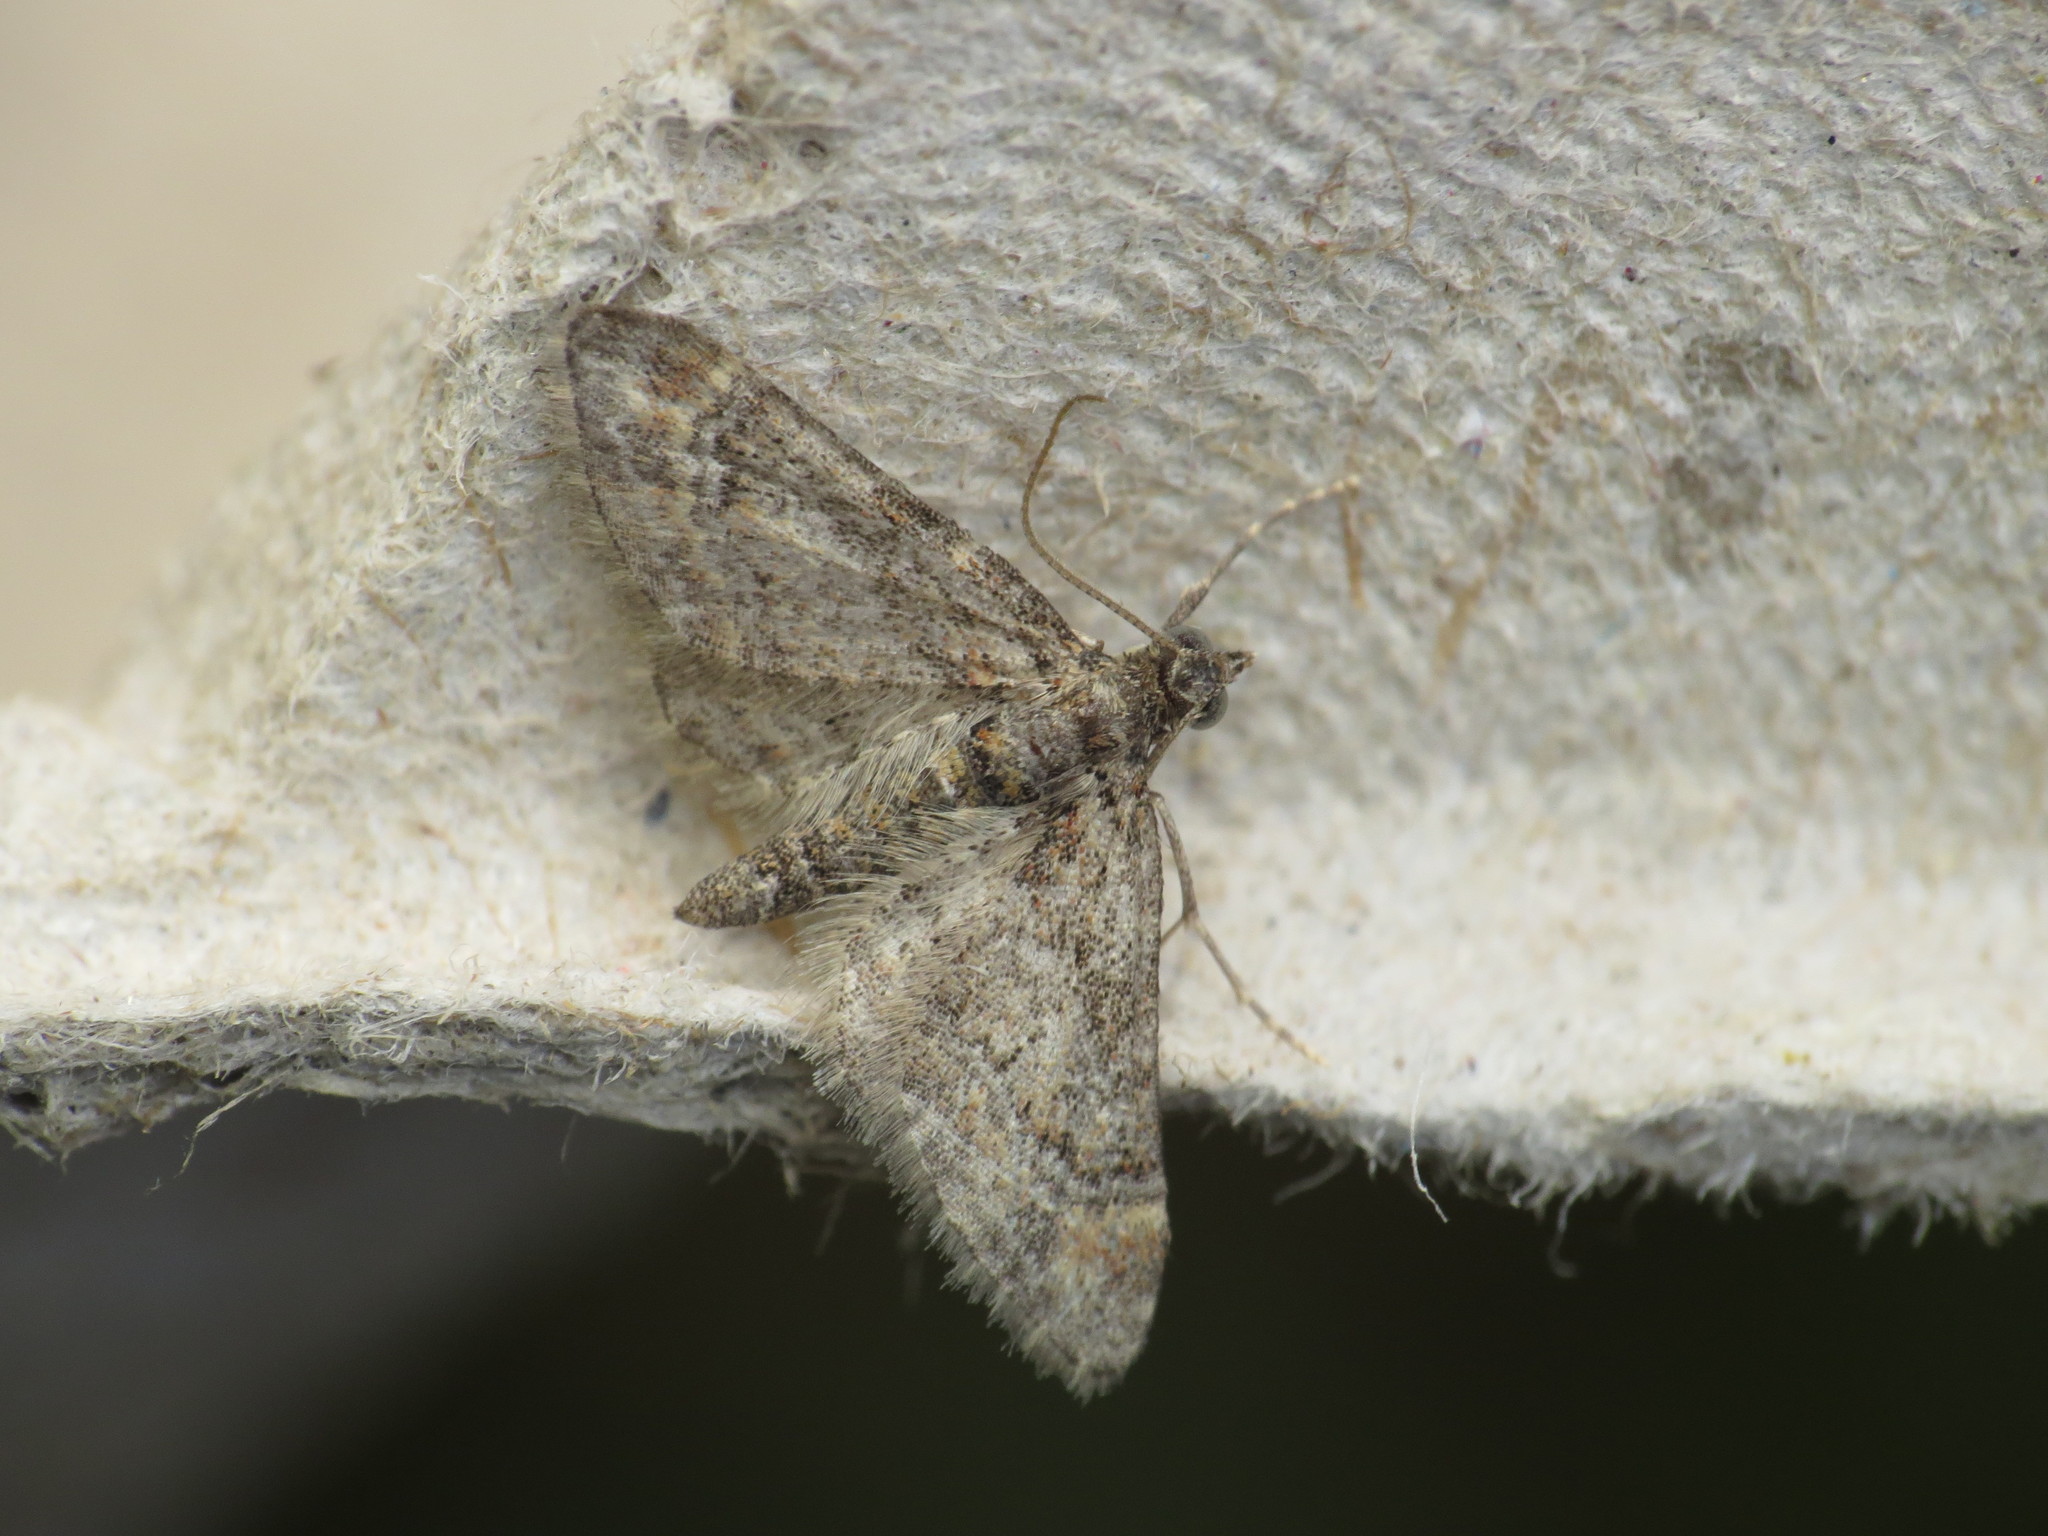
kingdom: Animalia
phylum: Arthropoda
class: Insecta
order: Lepidoptera
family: Geometridae
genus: Gymnoscelis
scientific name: Gymnoscelis rufifasciata
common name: Double-striped pug
